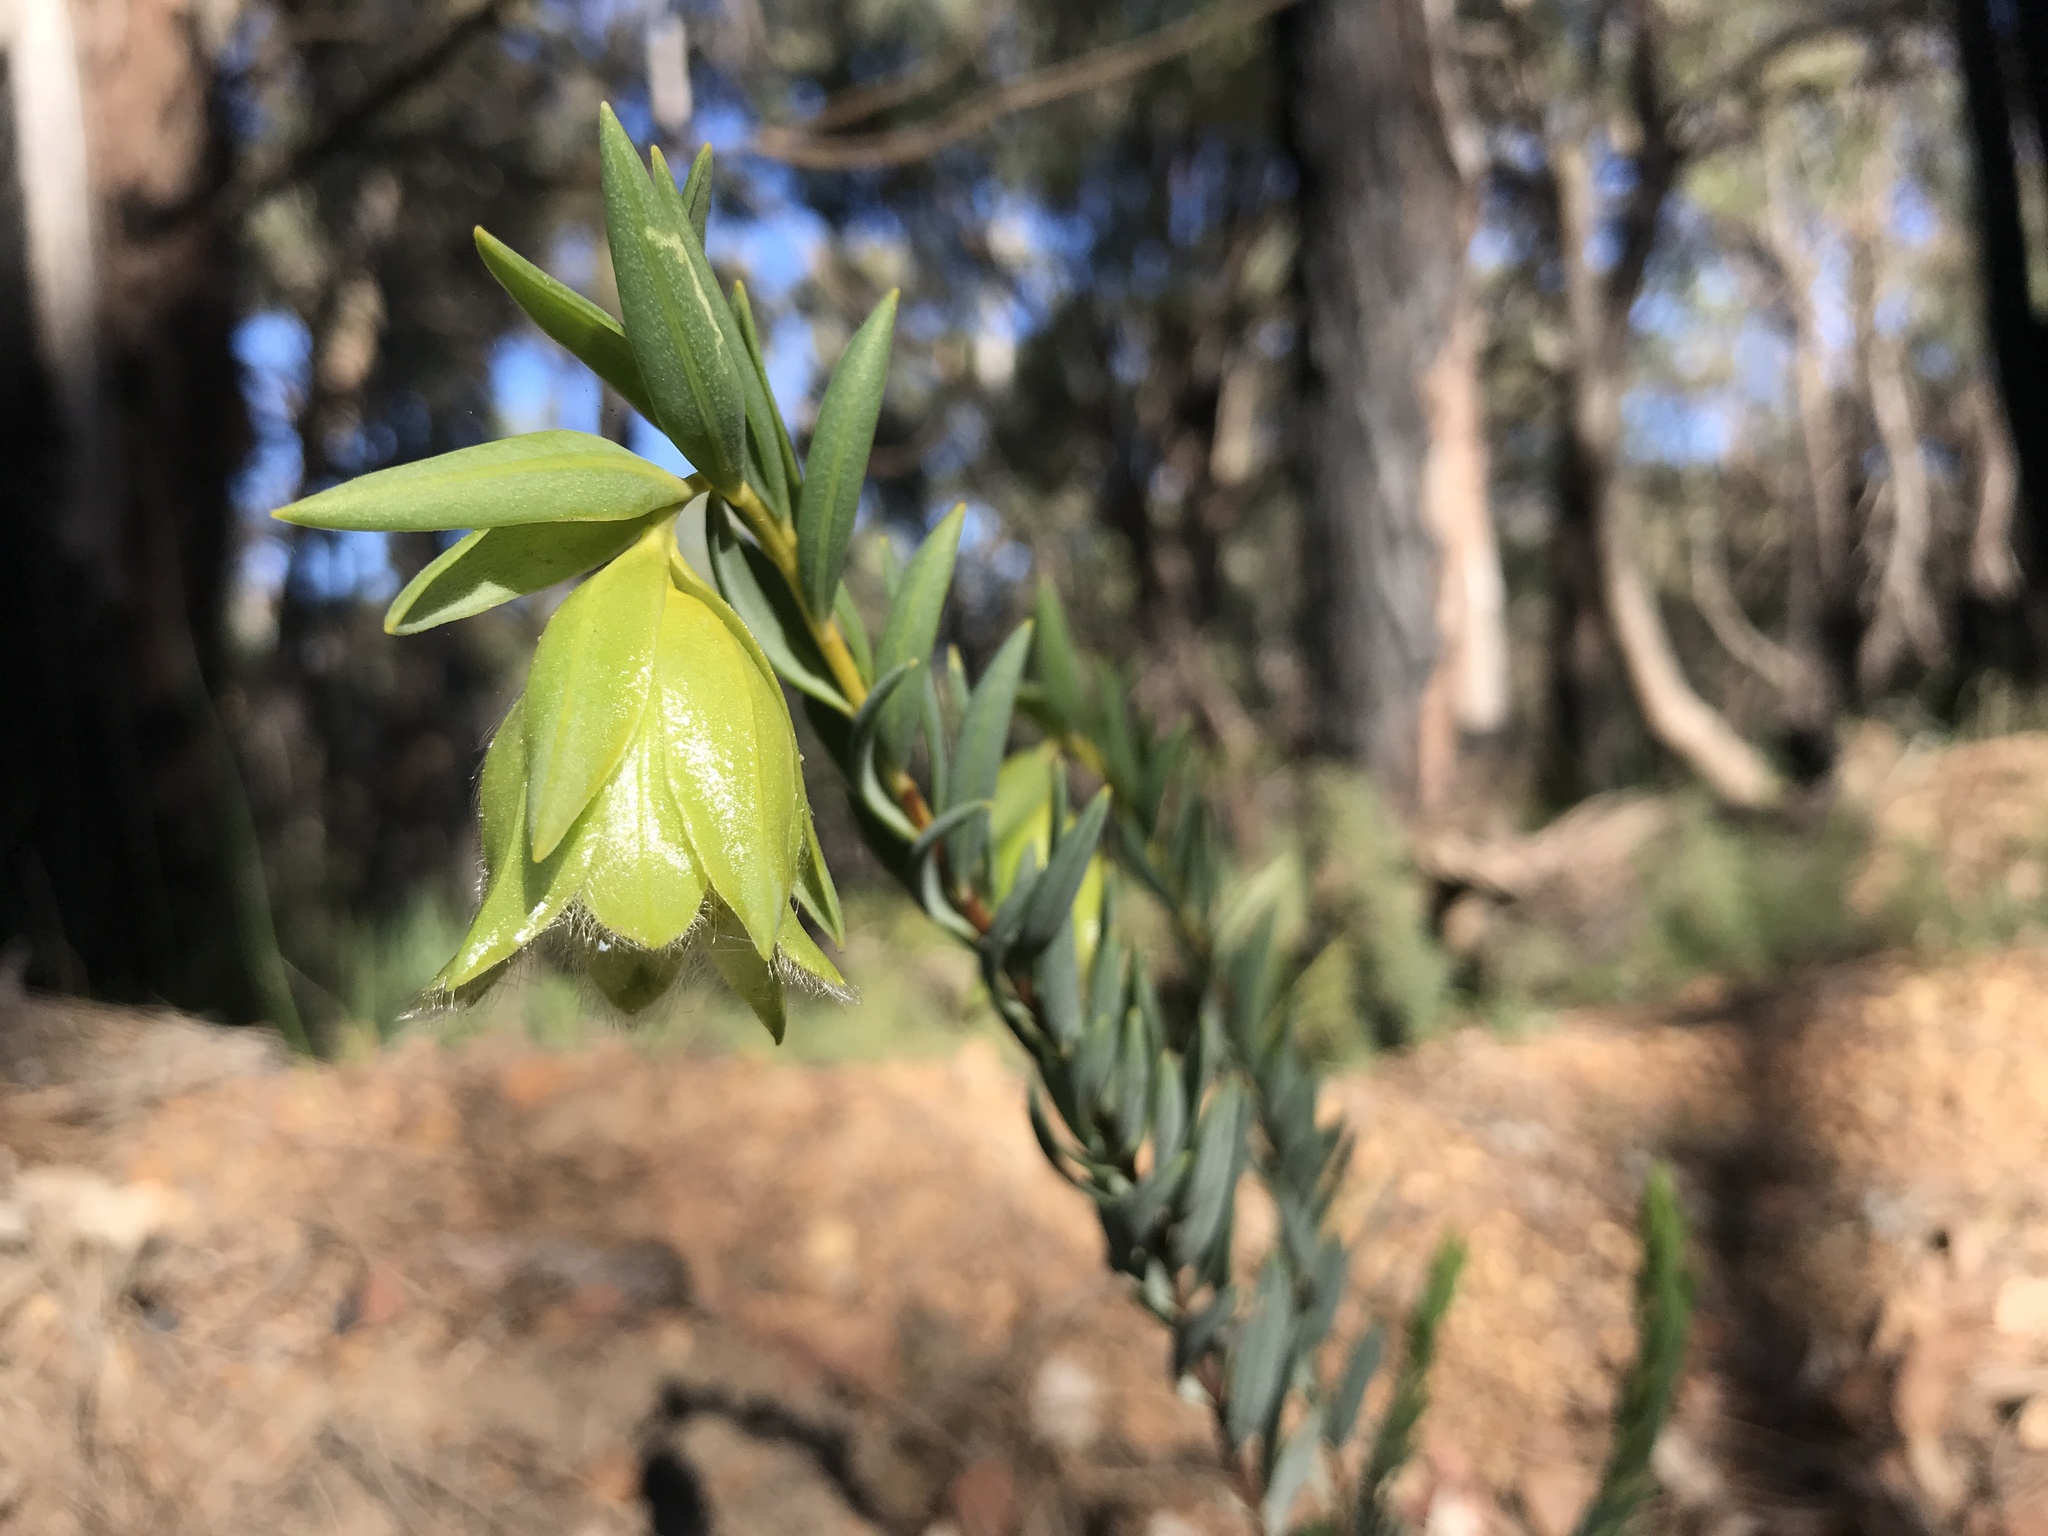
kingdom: Plantae
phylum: Tracheophyta
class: Magnoliopsida
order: Malvales
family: Thymelaeaceae
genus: Pimelea
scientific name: Pimelea suaveolens
